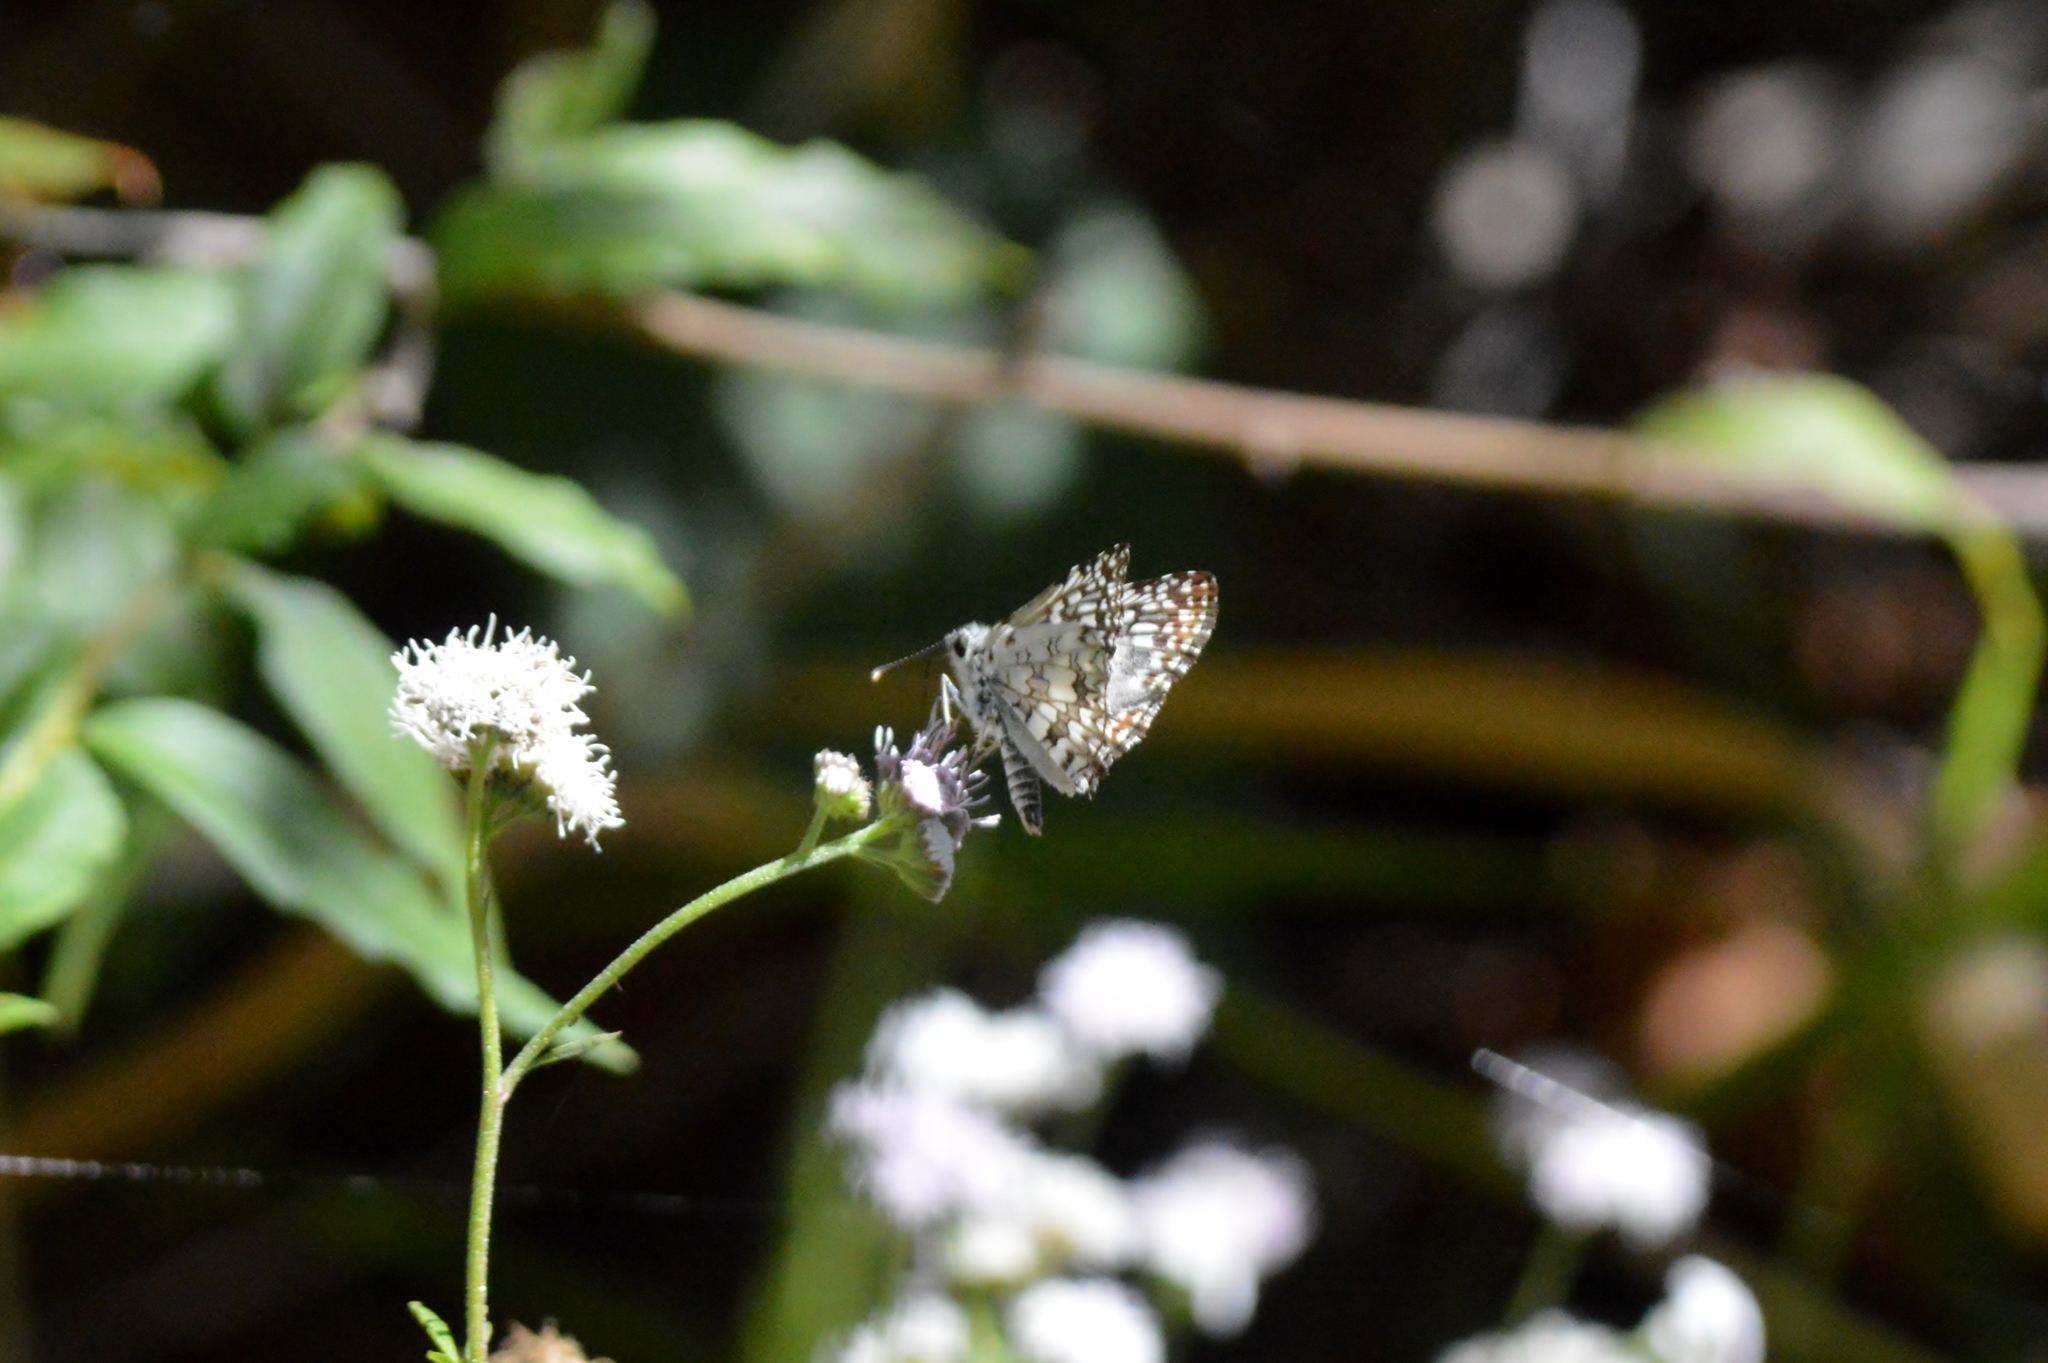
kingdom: Animalia
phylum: Arthropoda
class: Insecta
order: Lepidoptera
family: Hesperiidae
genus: Pyrgus
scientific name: Pyrgus oileus
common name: Tropical checkered-skipper
